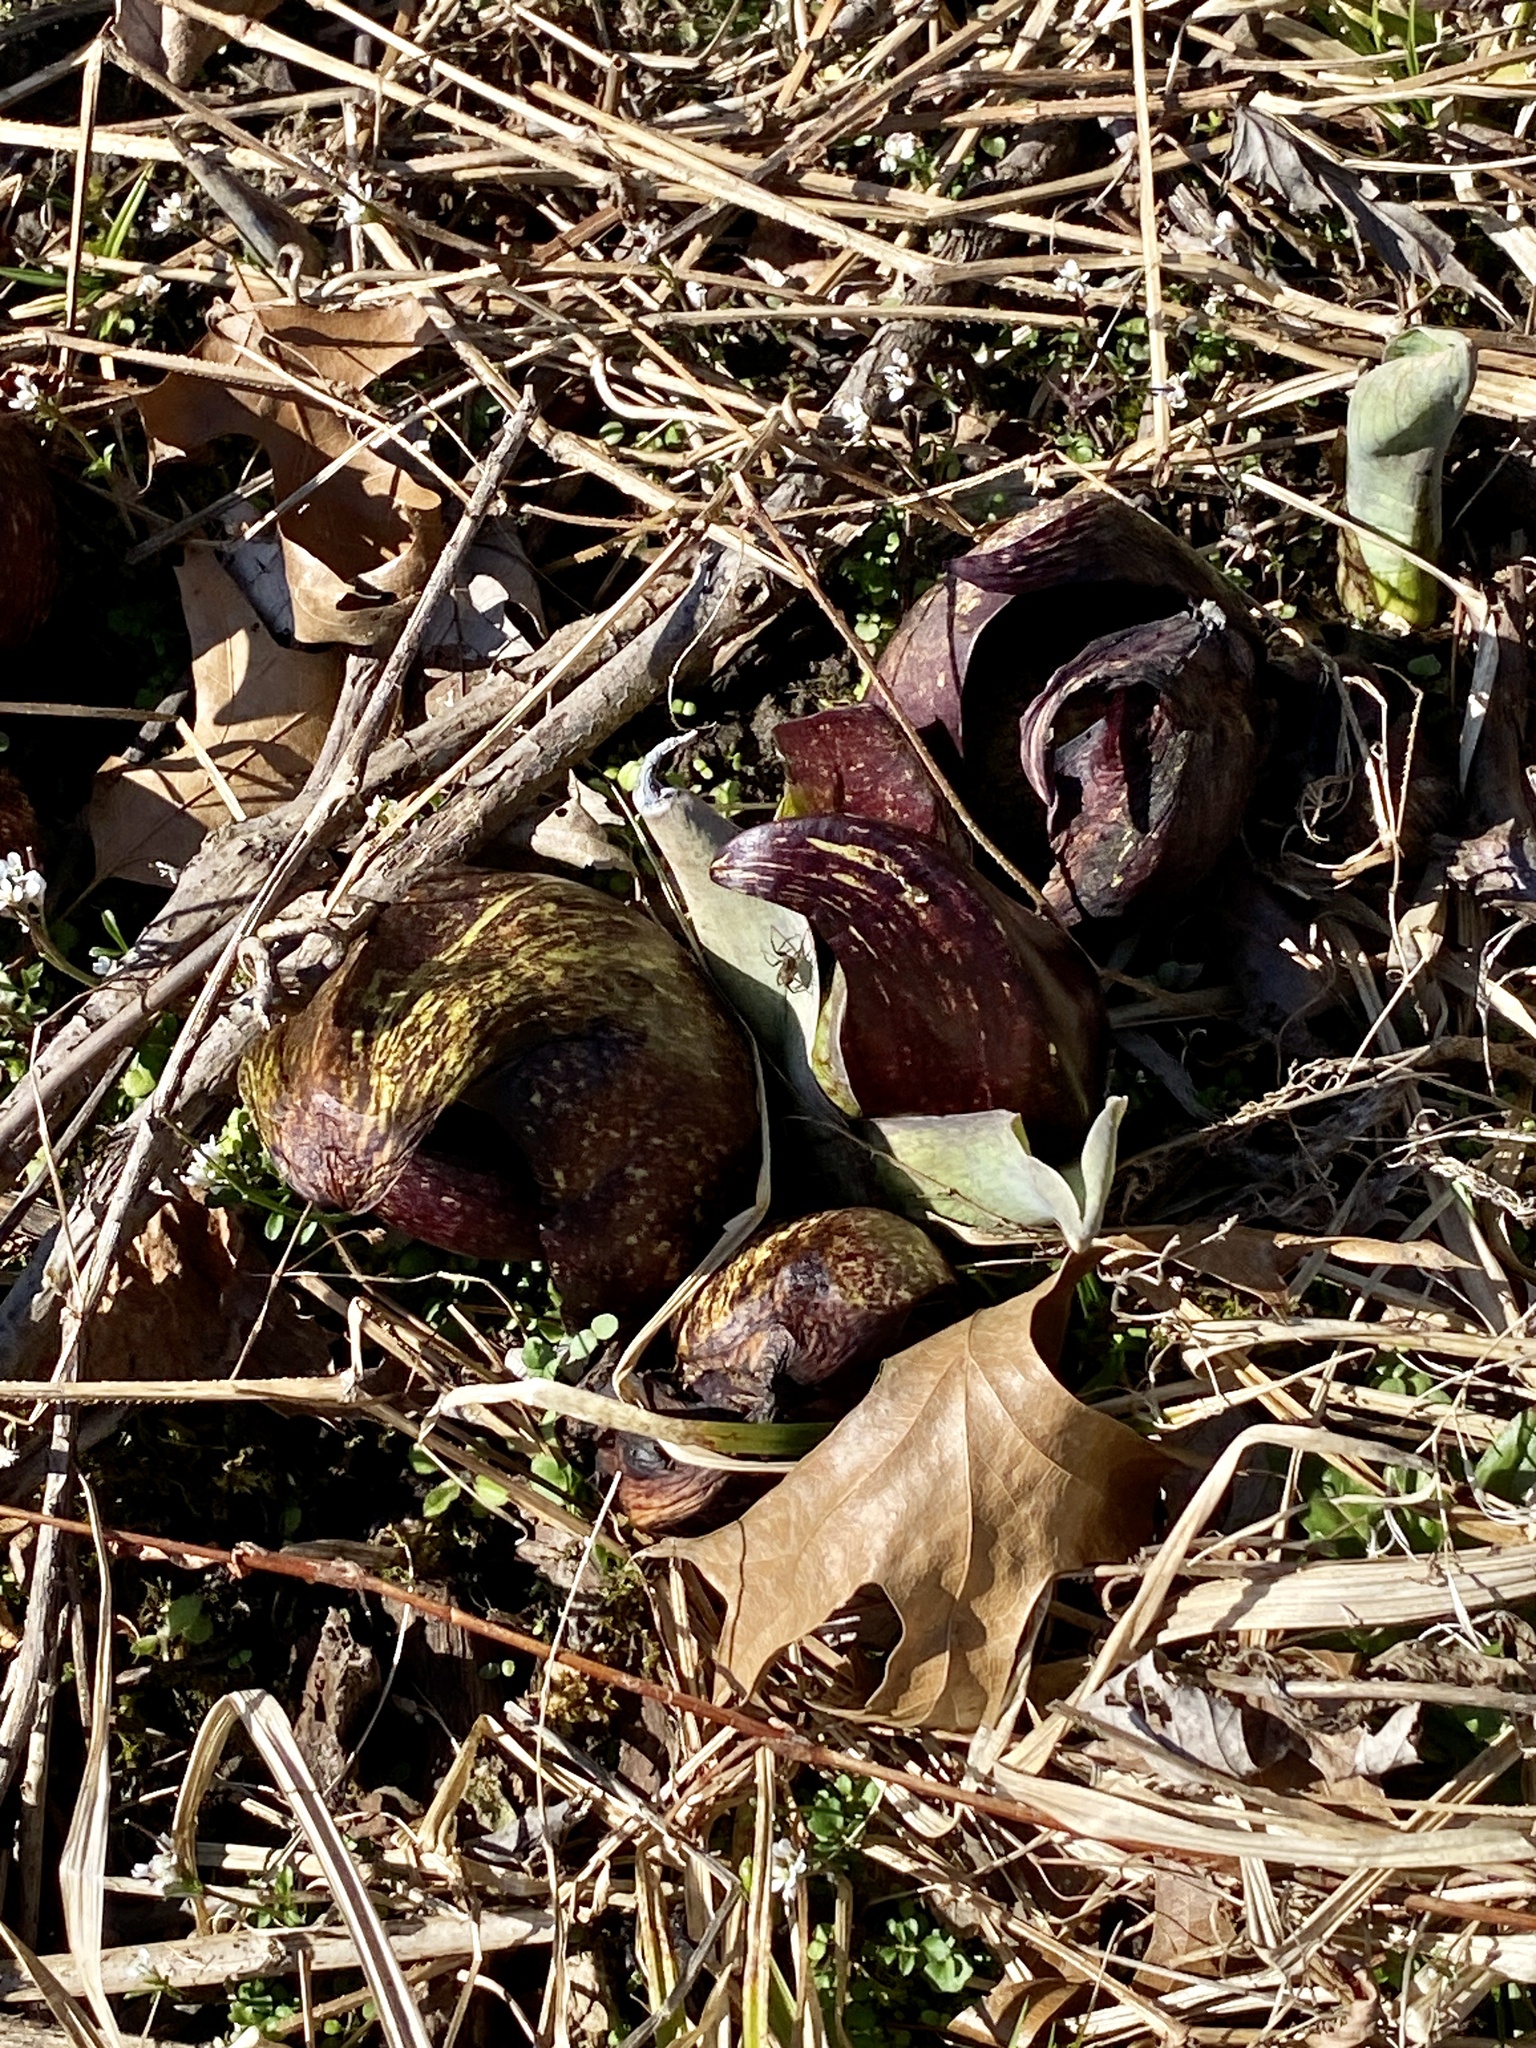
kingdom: Plantae
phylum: Tracheophyta
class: Liliopsida
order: Alismatales
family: Araceae
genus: Symplocarpus
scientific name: Symplocarpus foetidus
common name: Eastern skunk cabbage
